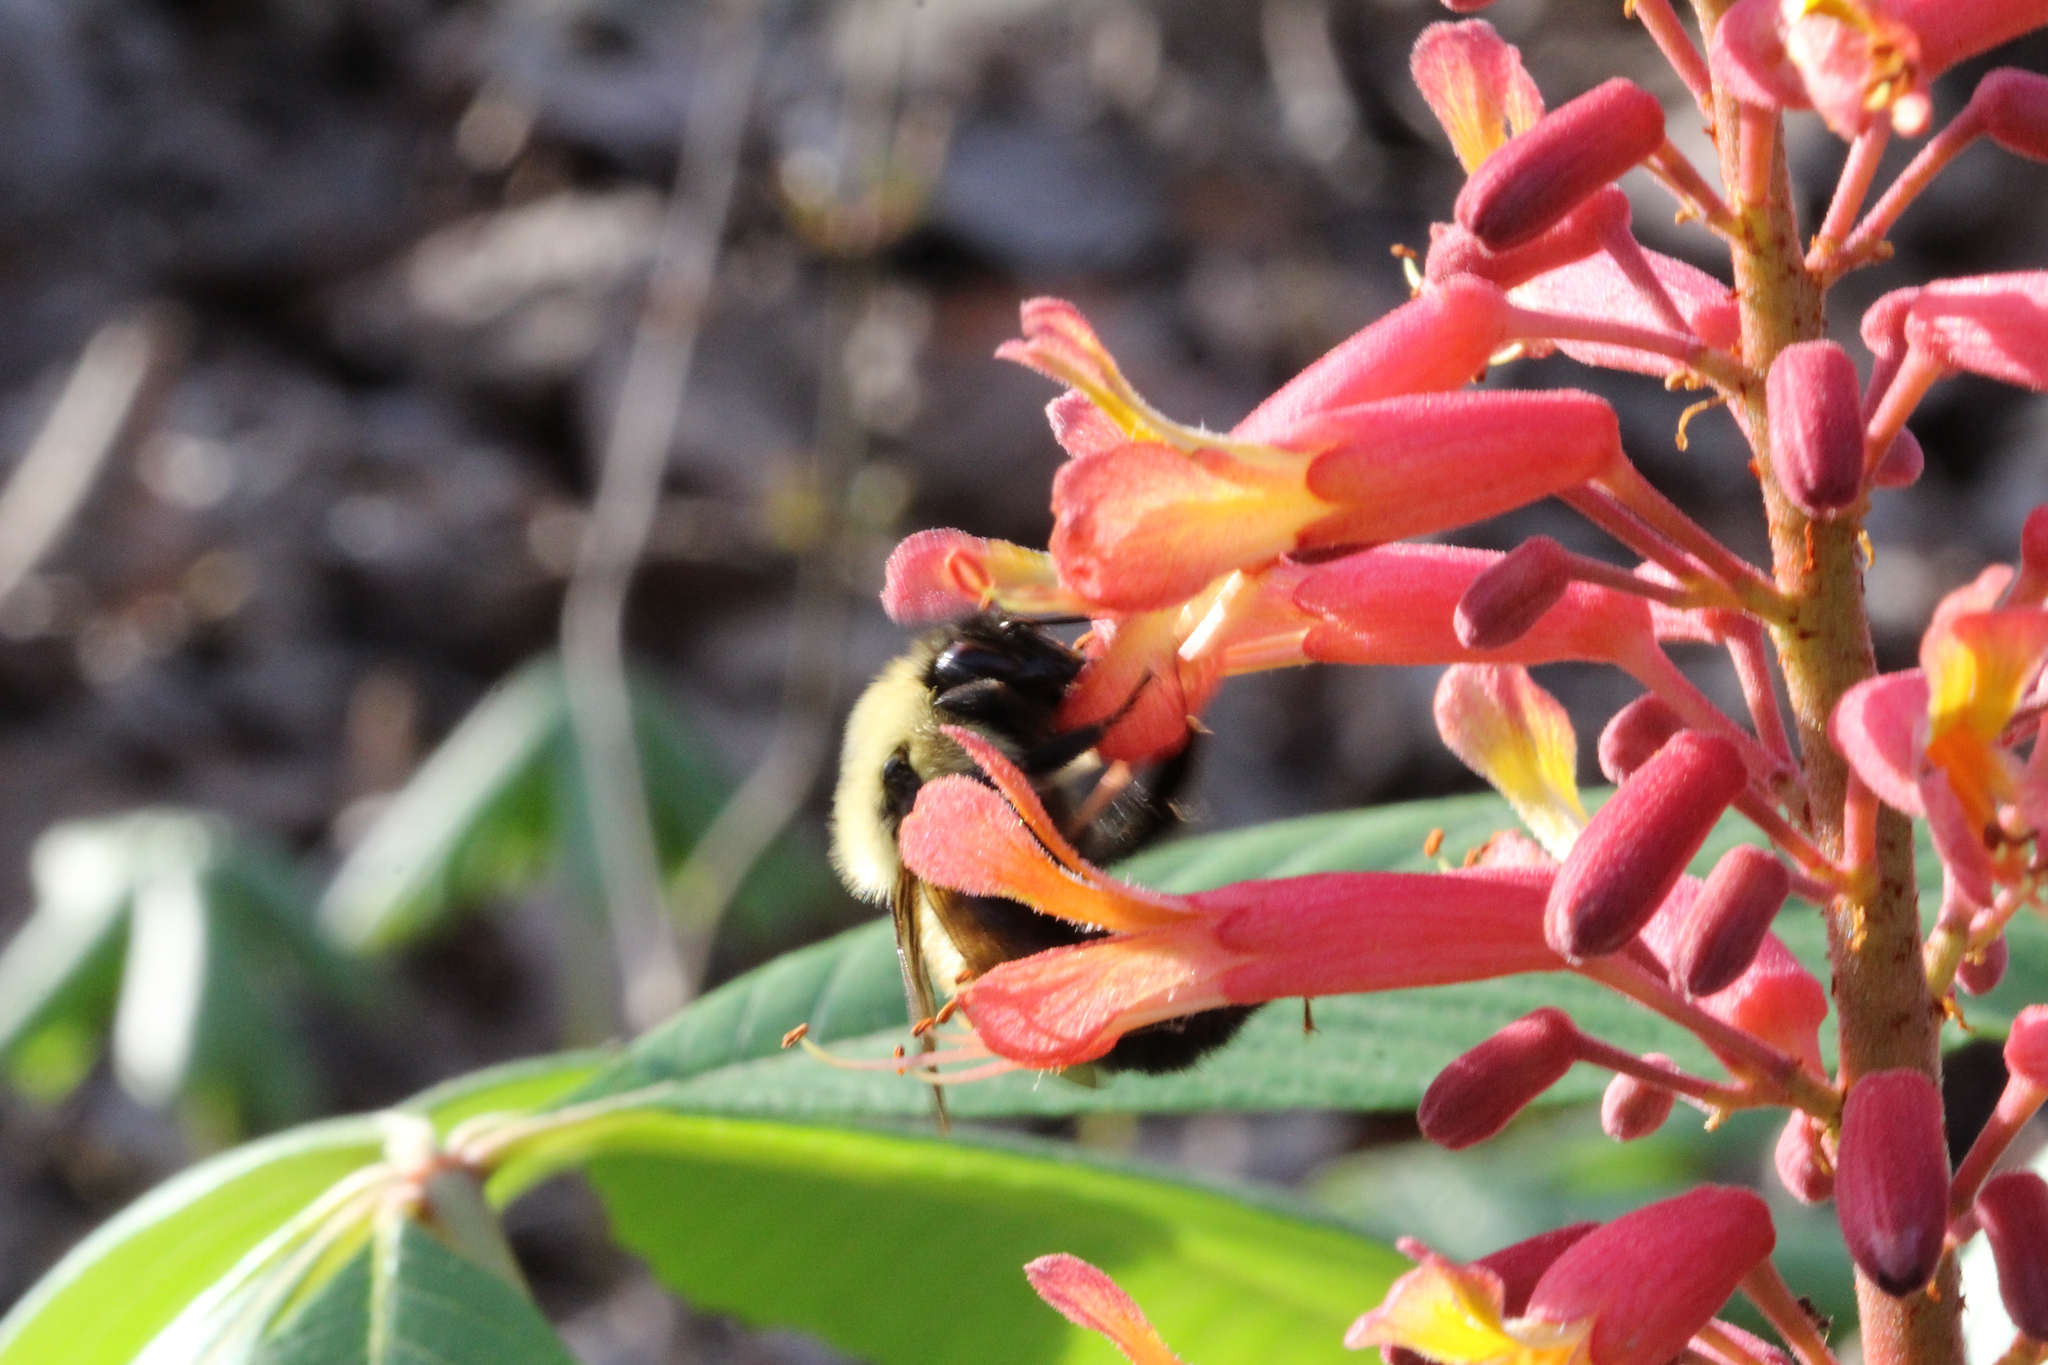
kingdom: Animalia
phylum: Arthropoda
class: Insecta
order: Hymenoptera
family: Apidae
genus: Bombus
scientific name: Bombus bimaculatus
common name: Two-spotted bumble bee
